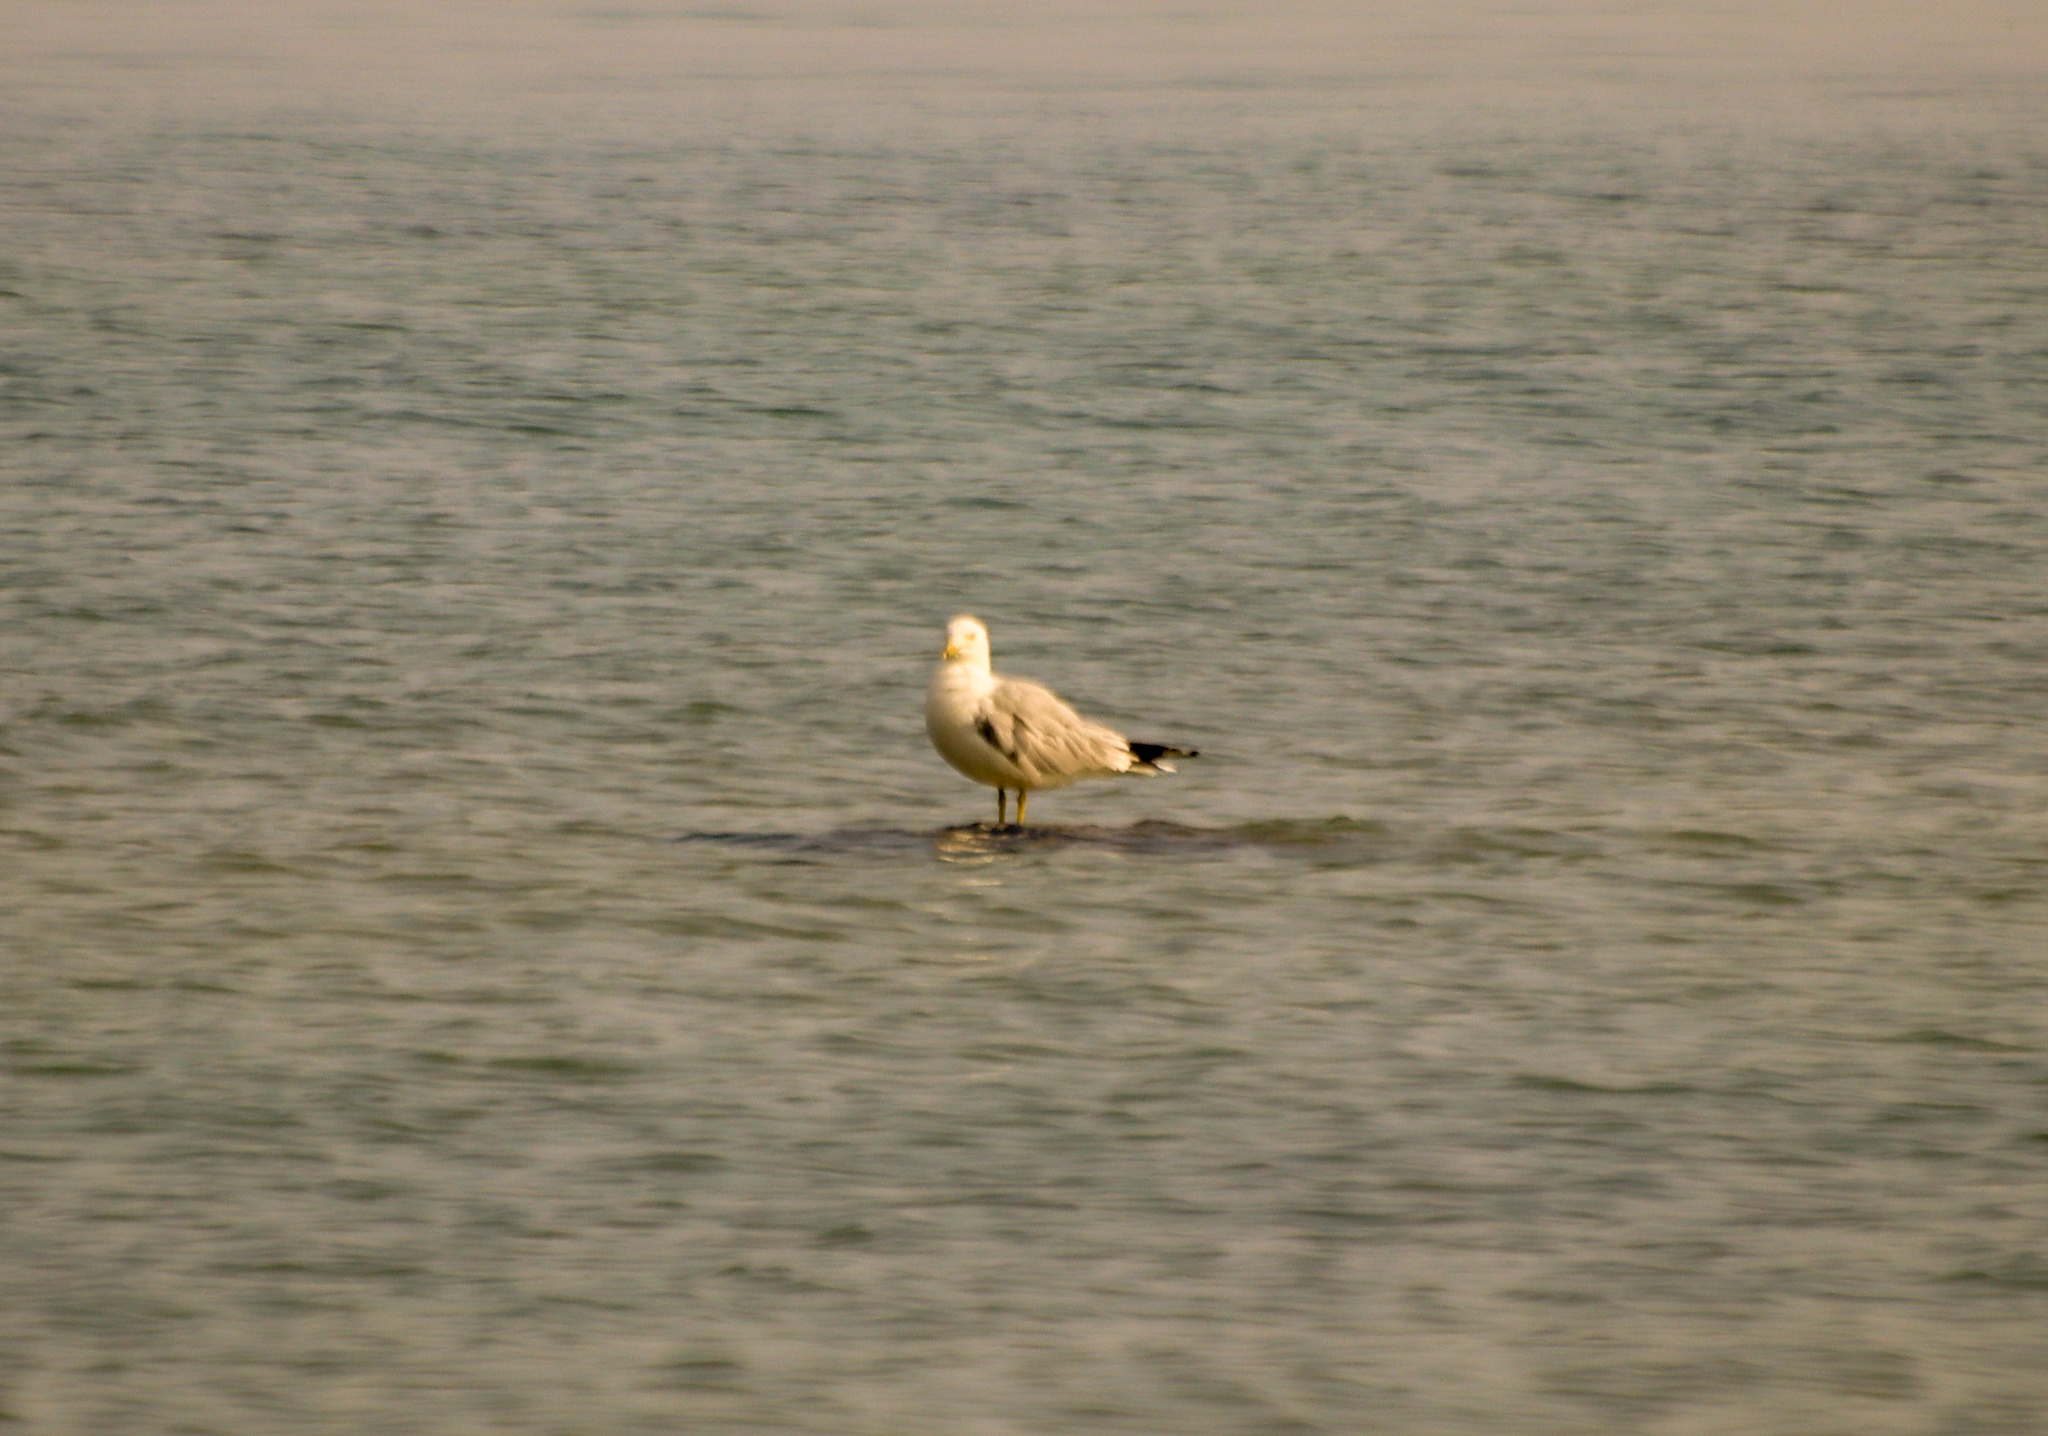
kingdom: Animalia
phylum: Chordata
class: Aves
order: Charadriiformes
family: Laridae
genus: Larus
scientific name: Larus delawarensis
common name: Ring-billed gull
